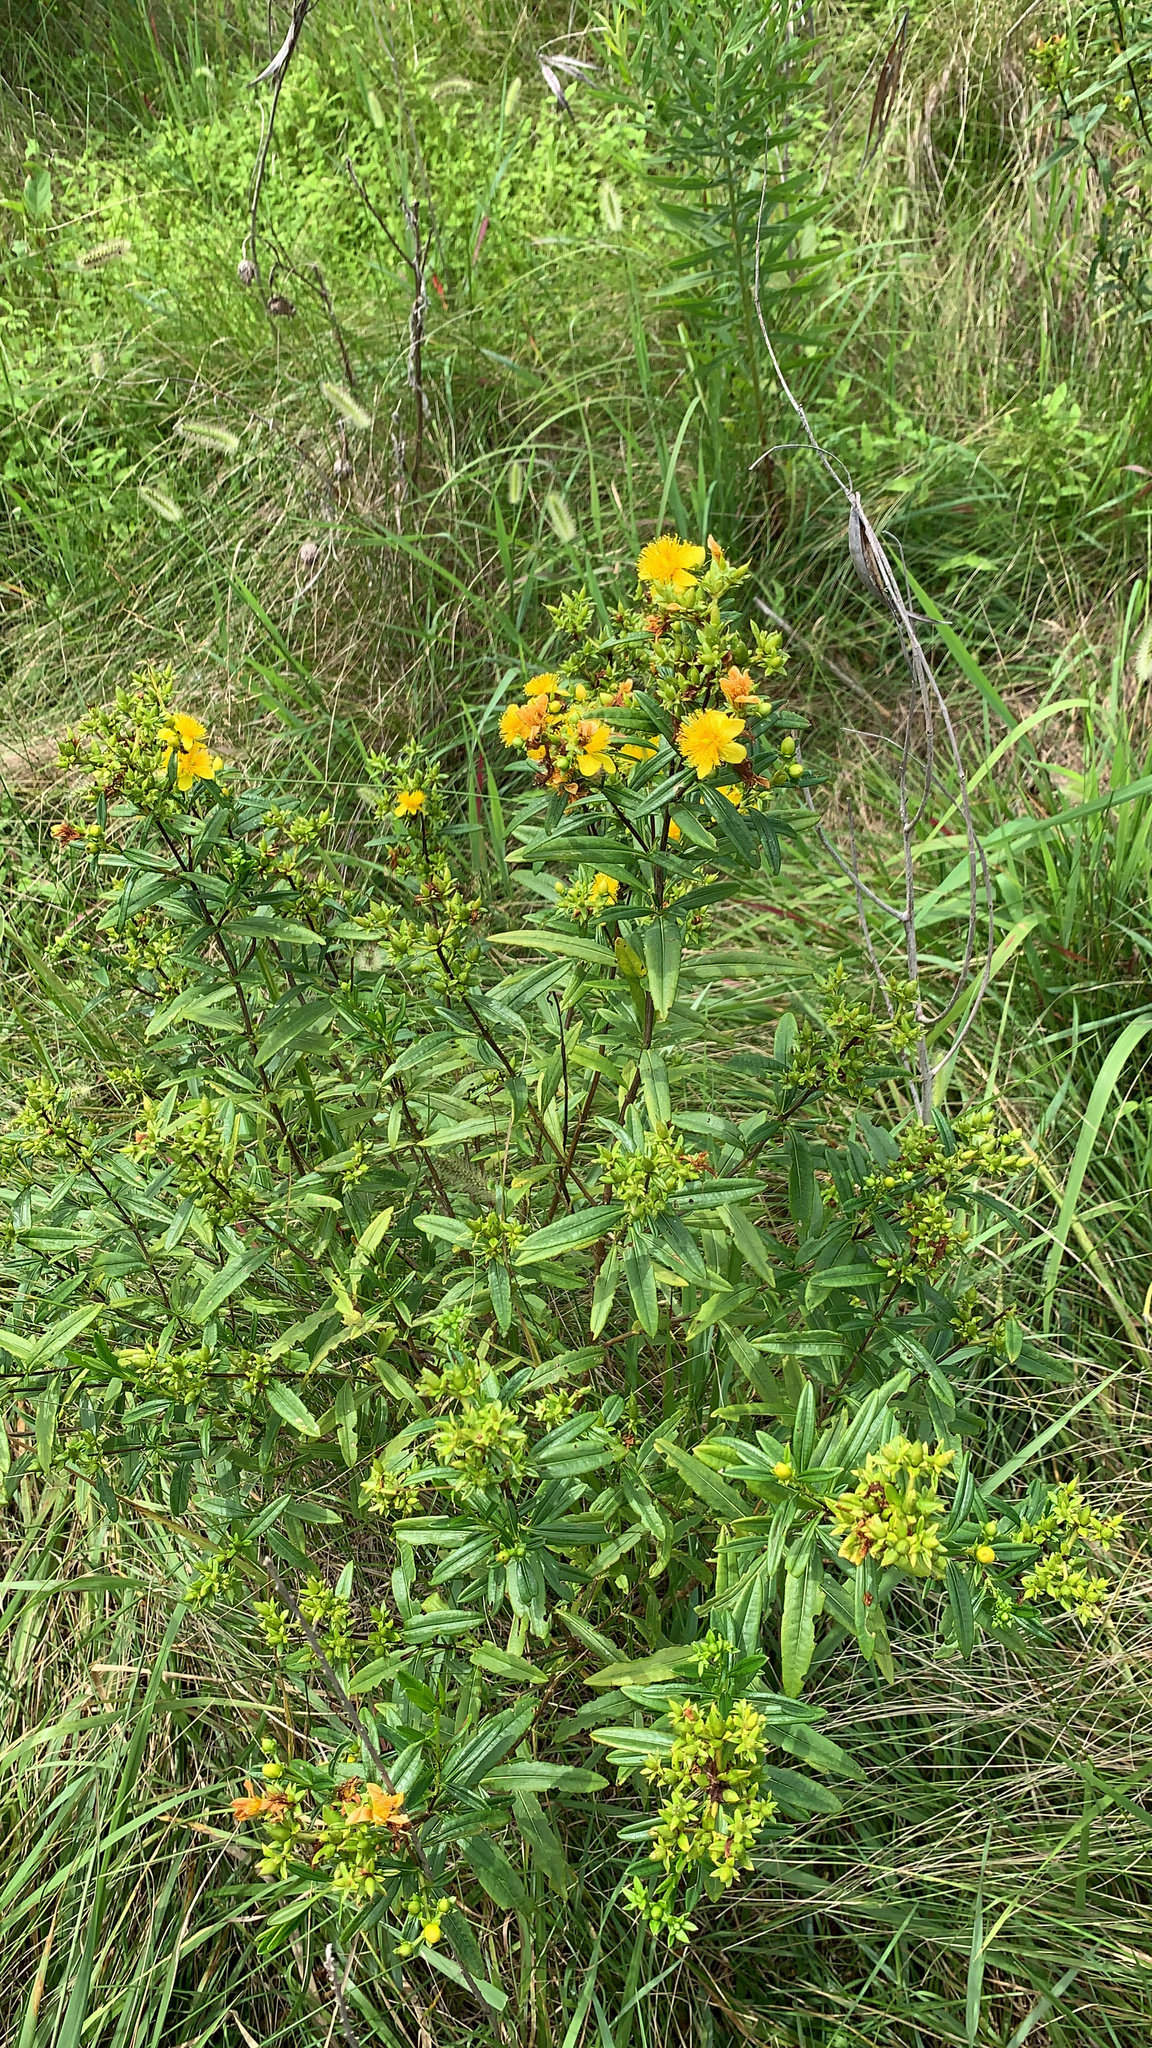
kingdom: Plantae
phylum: Tracheophyta
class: Magnoliopsida
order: Malpighiales
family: Hypericaceae
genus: Hypericum
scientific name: Hypericum prolificum
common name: Shrubby st. john's-wort
